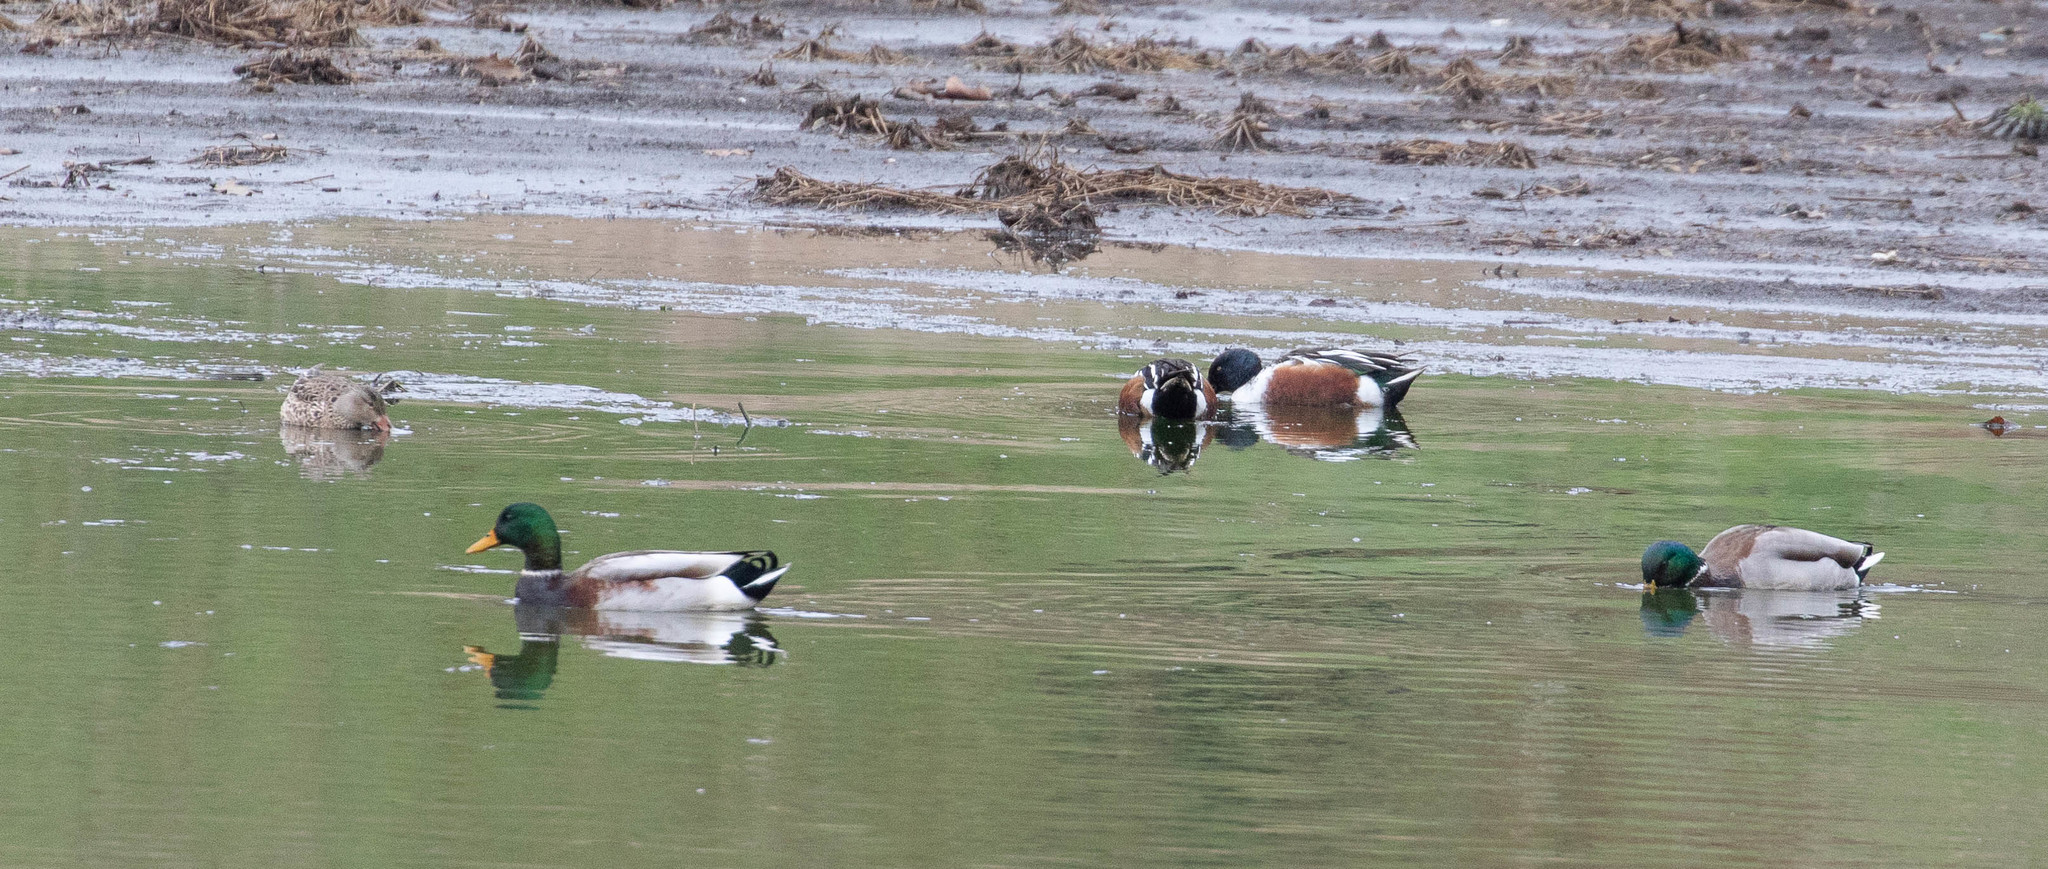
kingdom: Animalia
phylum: Chordata
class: Aves
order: Anseriformes
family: Anatidae
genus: Anas
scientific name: Anas platyrhynchos
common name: Mallard
